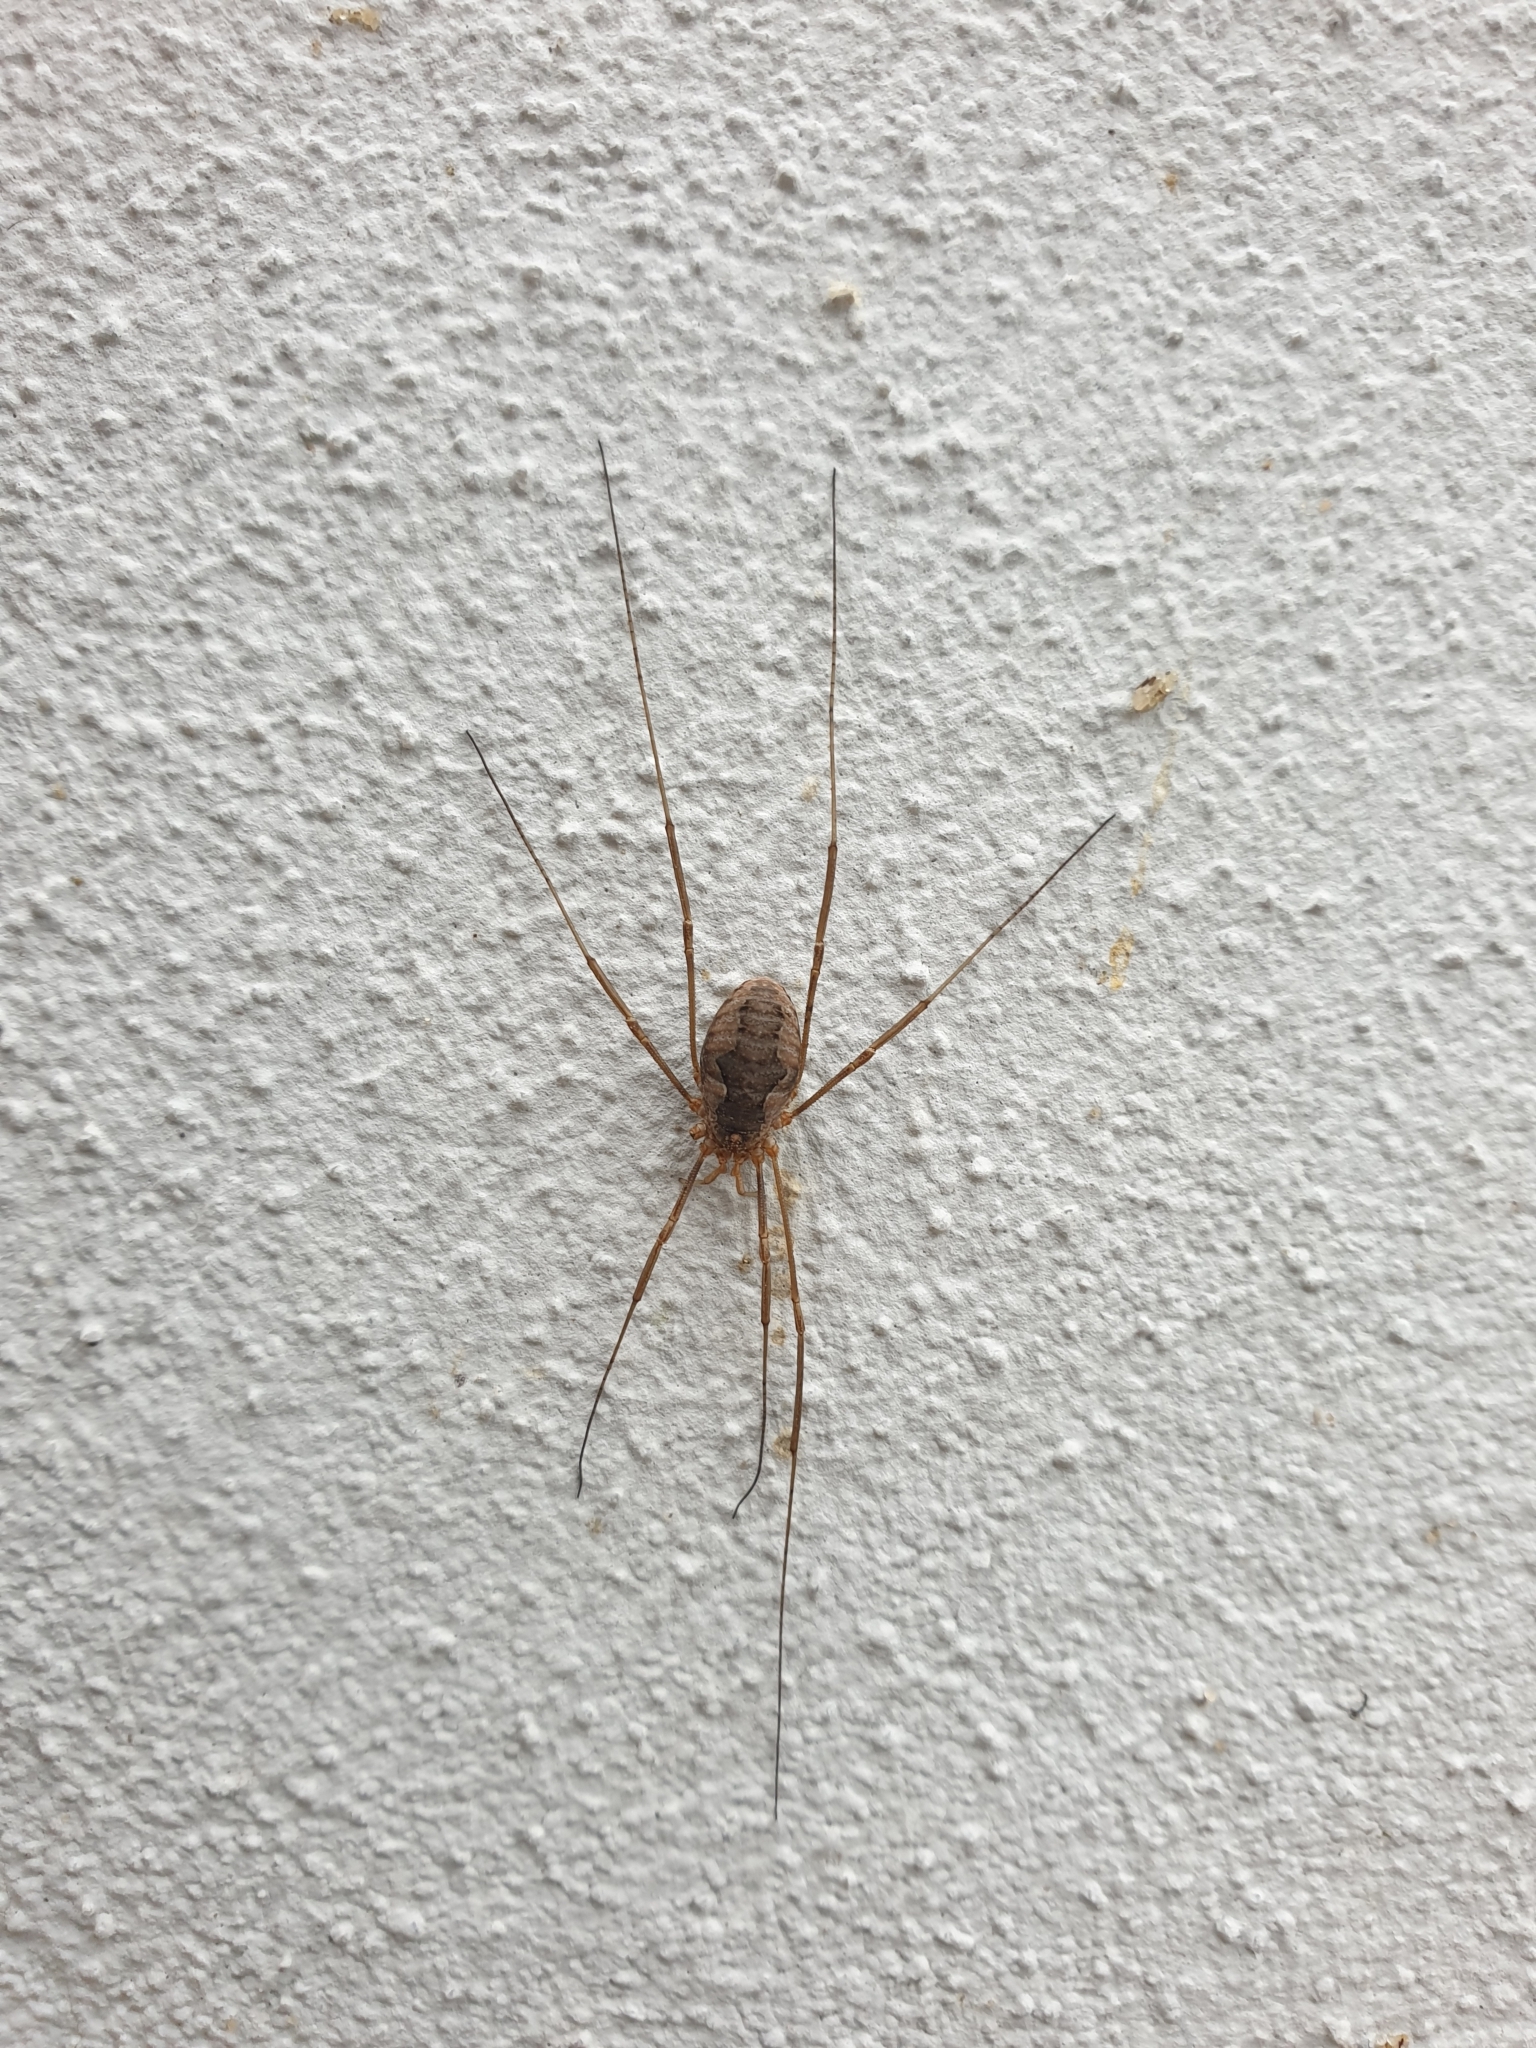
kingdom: Animalia
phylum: Arthropoda
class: Arachnida
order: Opiliones
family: Phalangiidae
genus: Phalangium
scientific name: Phalangium opilio
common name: Daddy longleg
